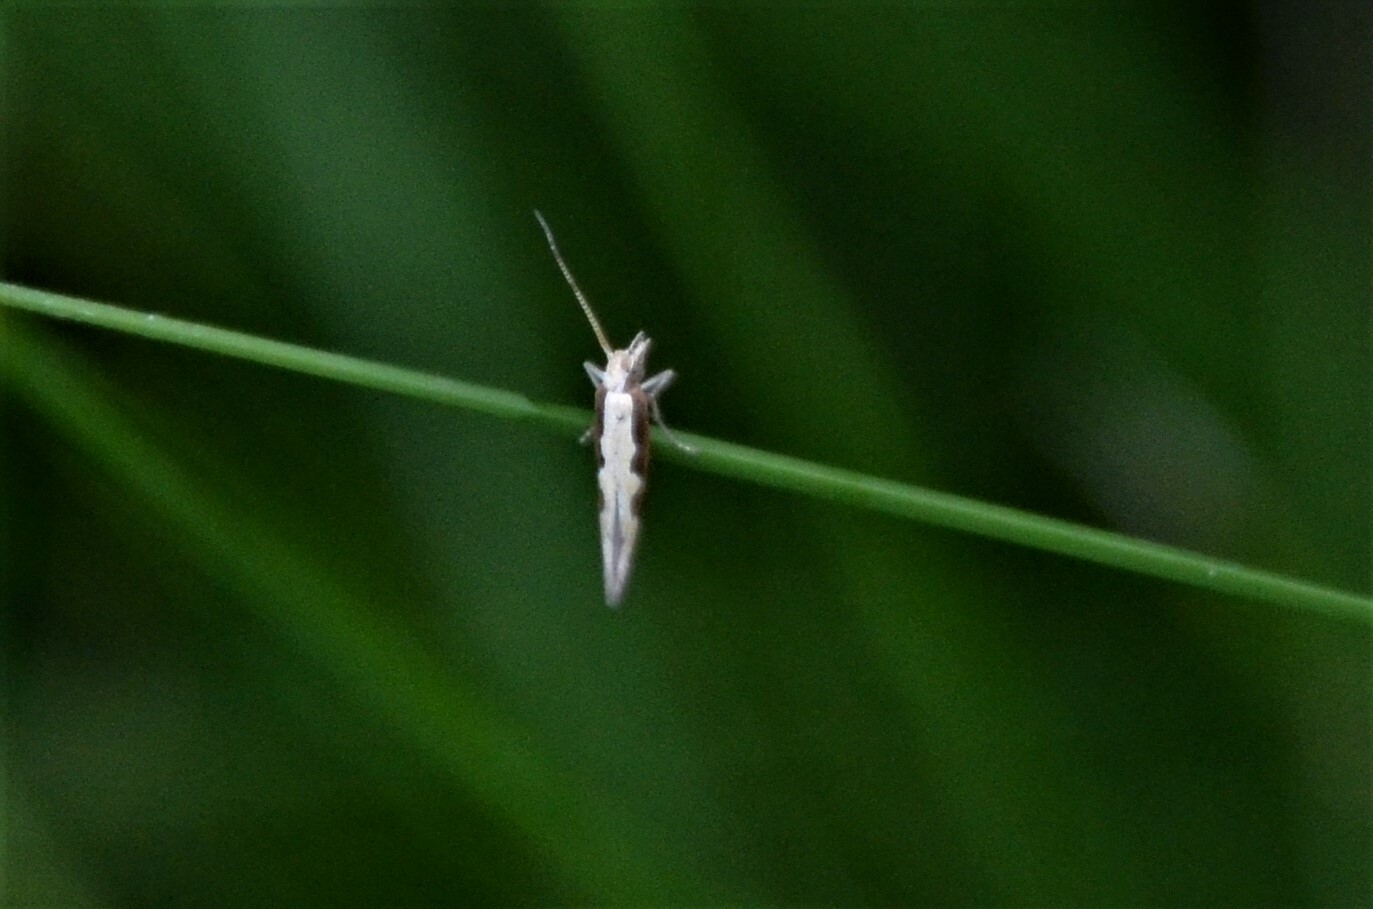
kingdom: Animalia
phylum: Arthropoda
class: Insecta
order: Lepidoptera
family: Plutellidae
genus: Plutella
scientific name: Plutella xylostella
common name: Diamond-back moth
